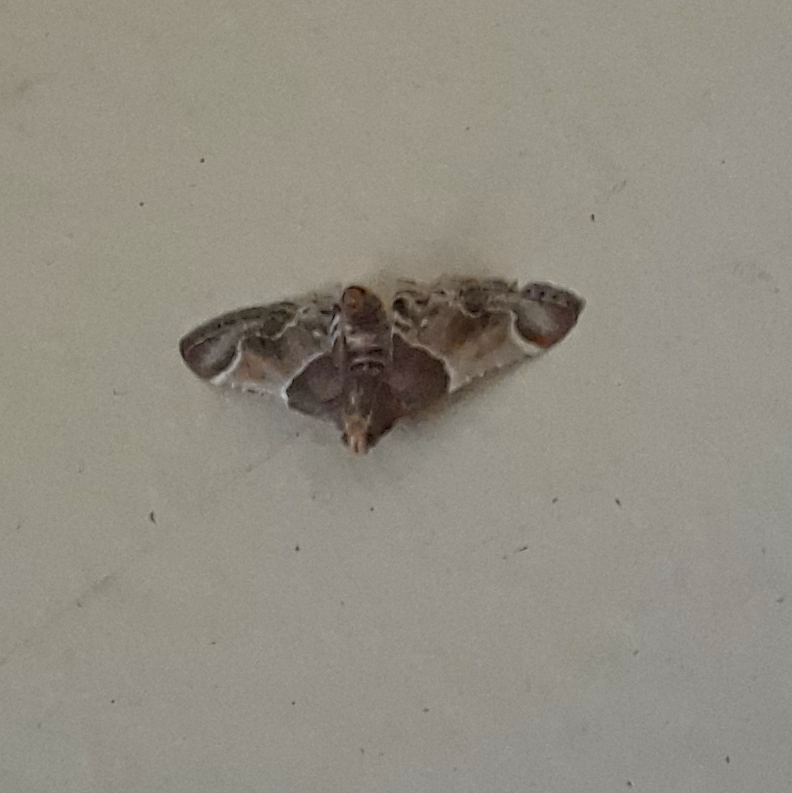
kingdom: Animalia
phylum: Arthropoda
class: Insecta
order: Lepidoptera
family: Pyralidae
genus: Pyralis
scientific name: Pyralis farinalis
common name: Meal moth
